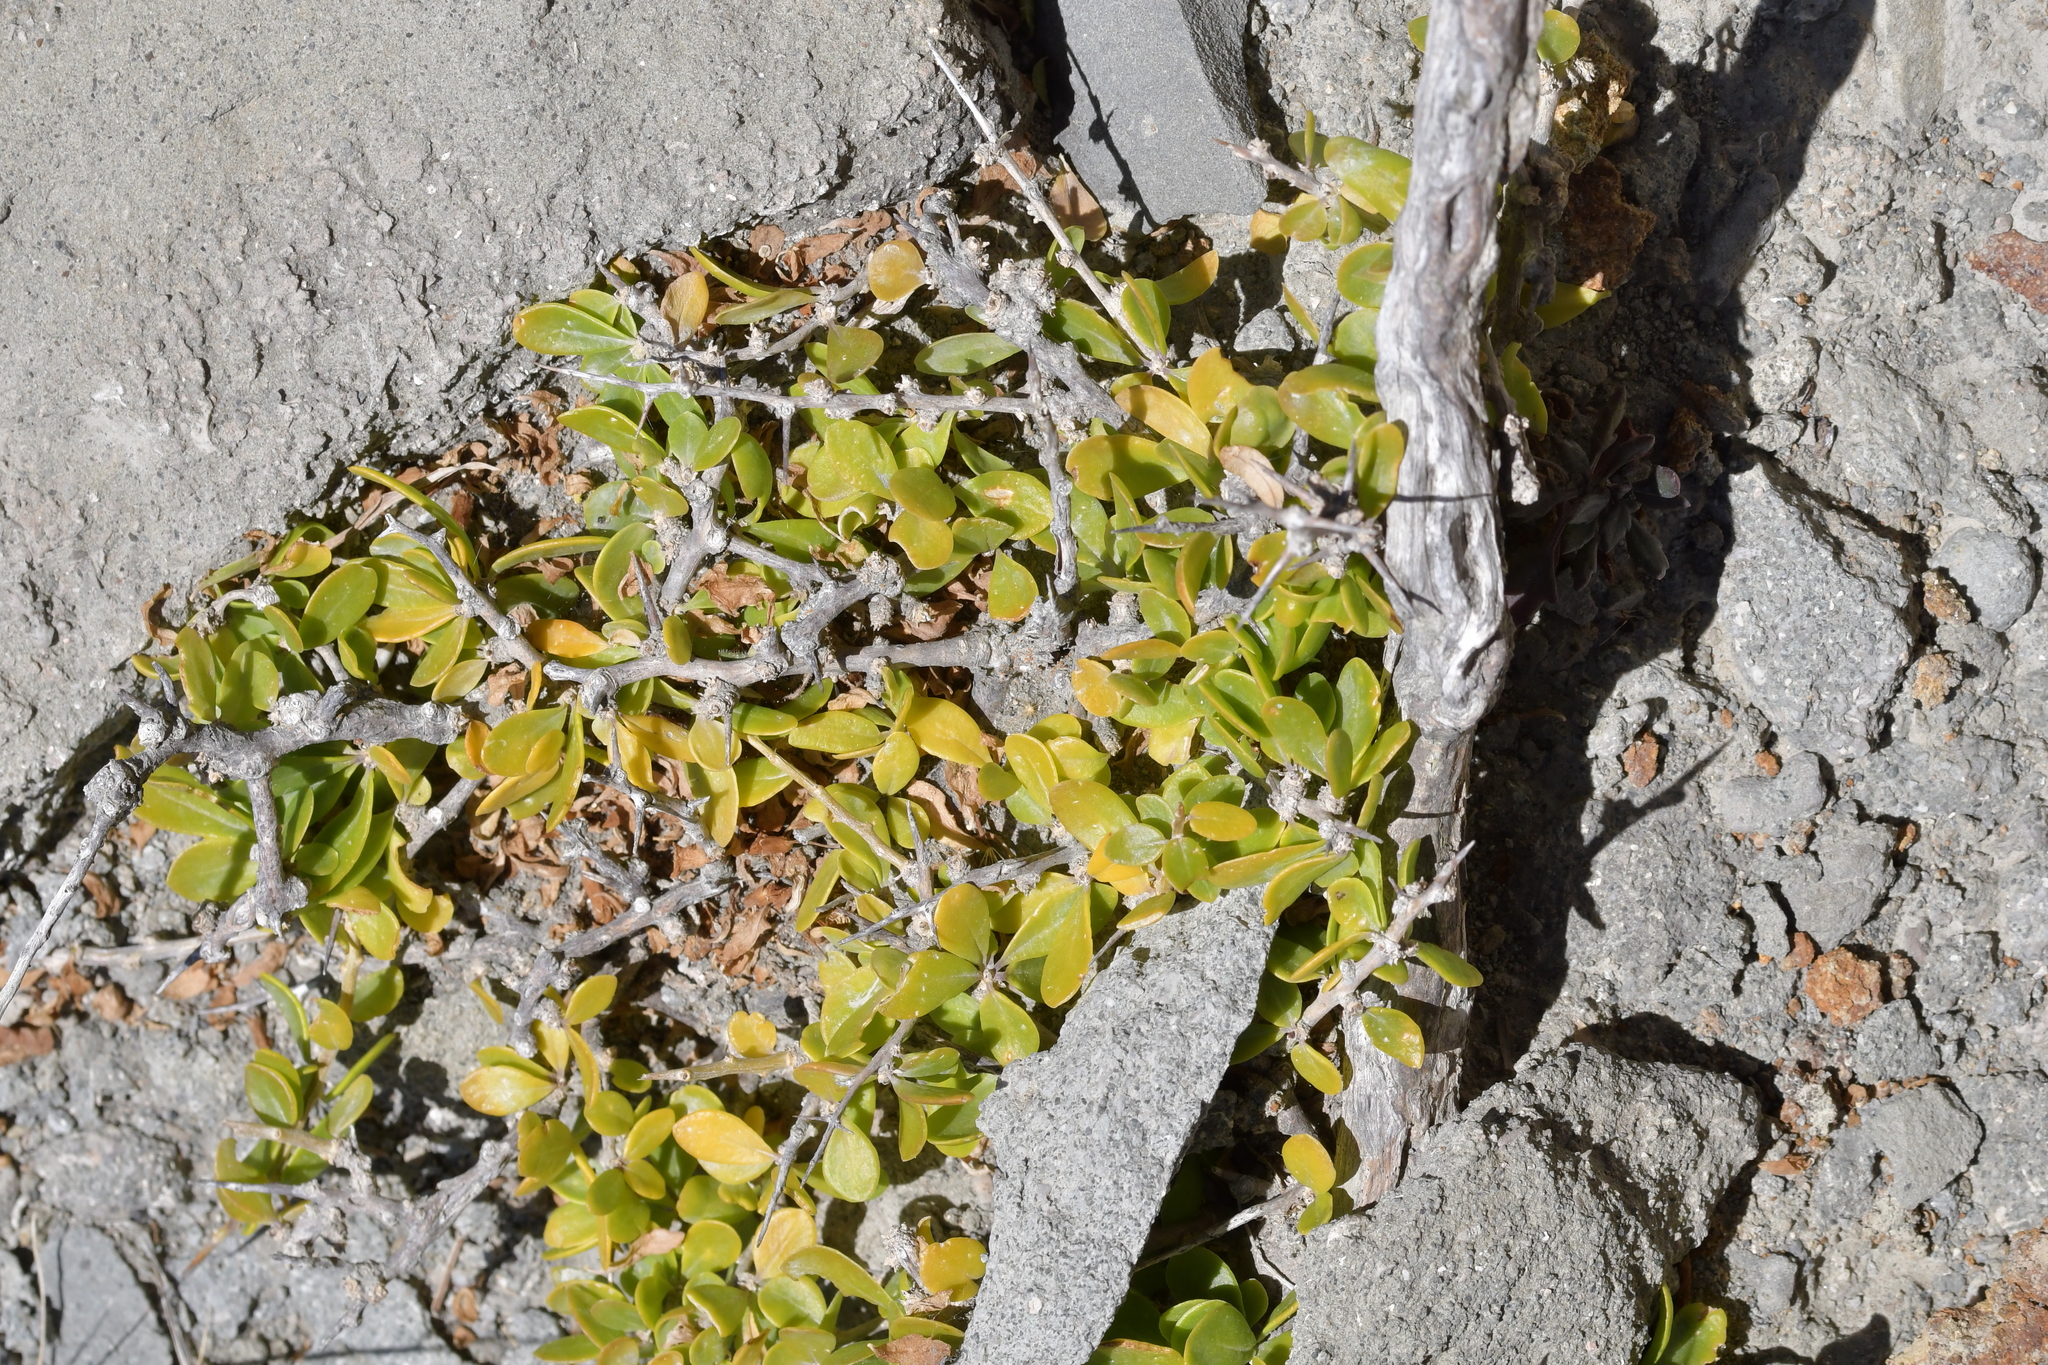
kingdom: Plantae
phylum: Tracheophyta
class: Magnoliopsida
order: Solanales
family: Solanaceae
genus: Lycium
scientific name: Lycium ferocissimum
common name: African boxthorn
